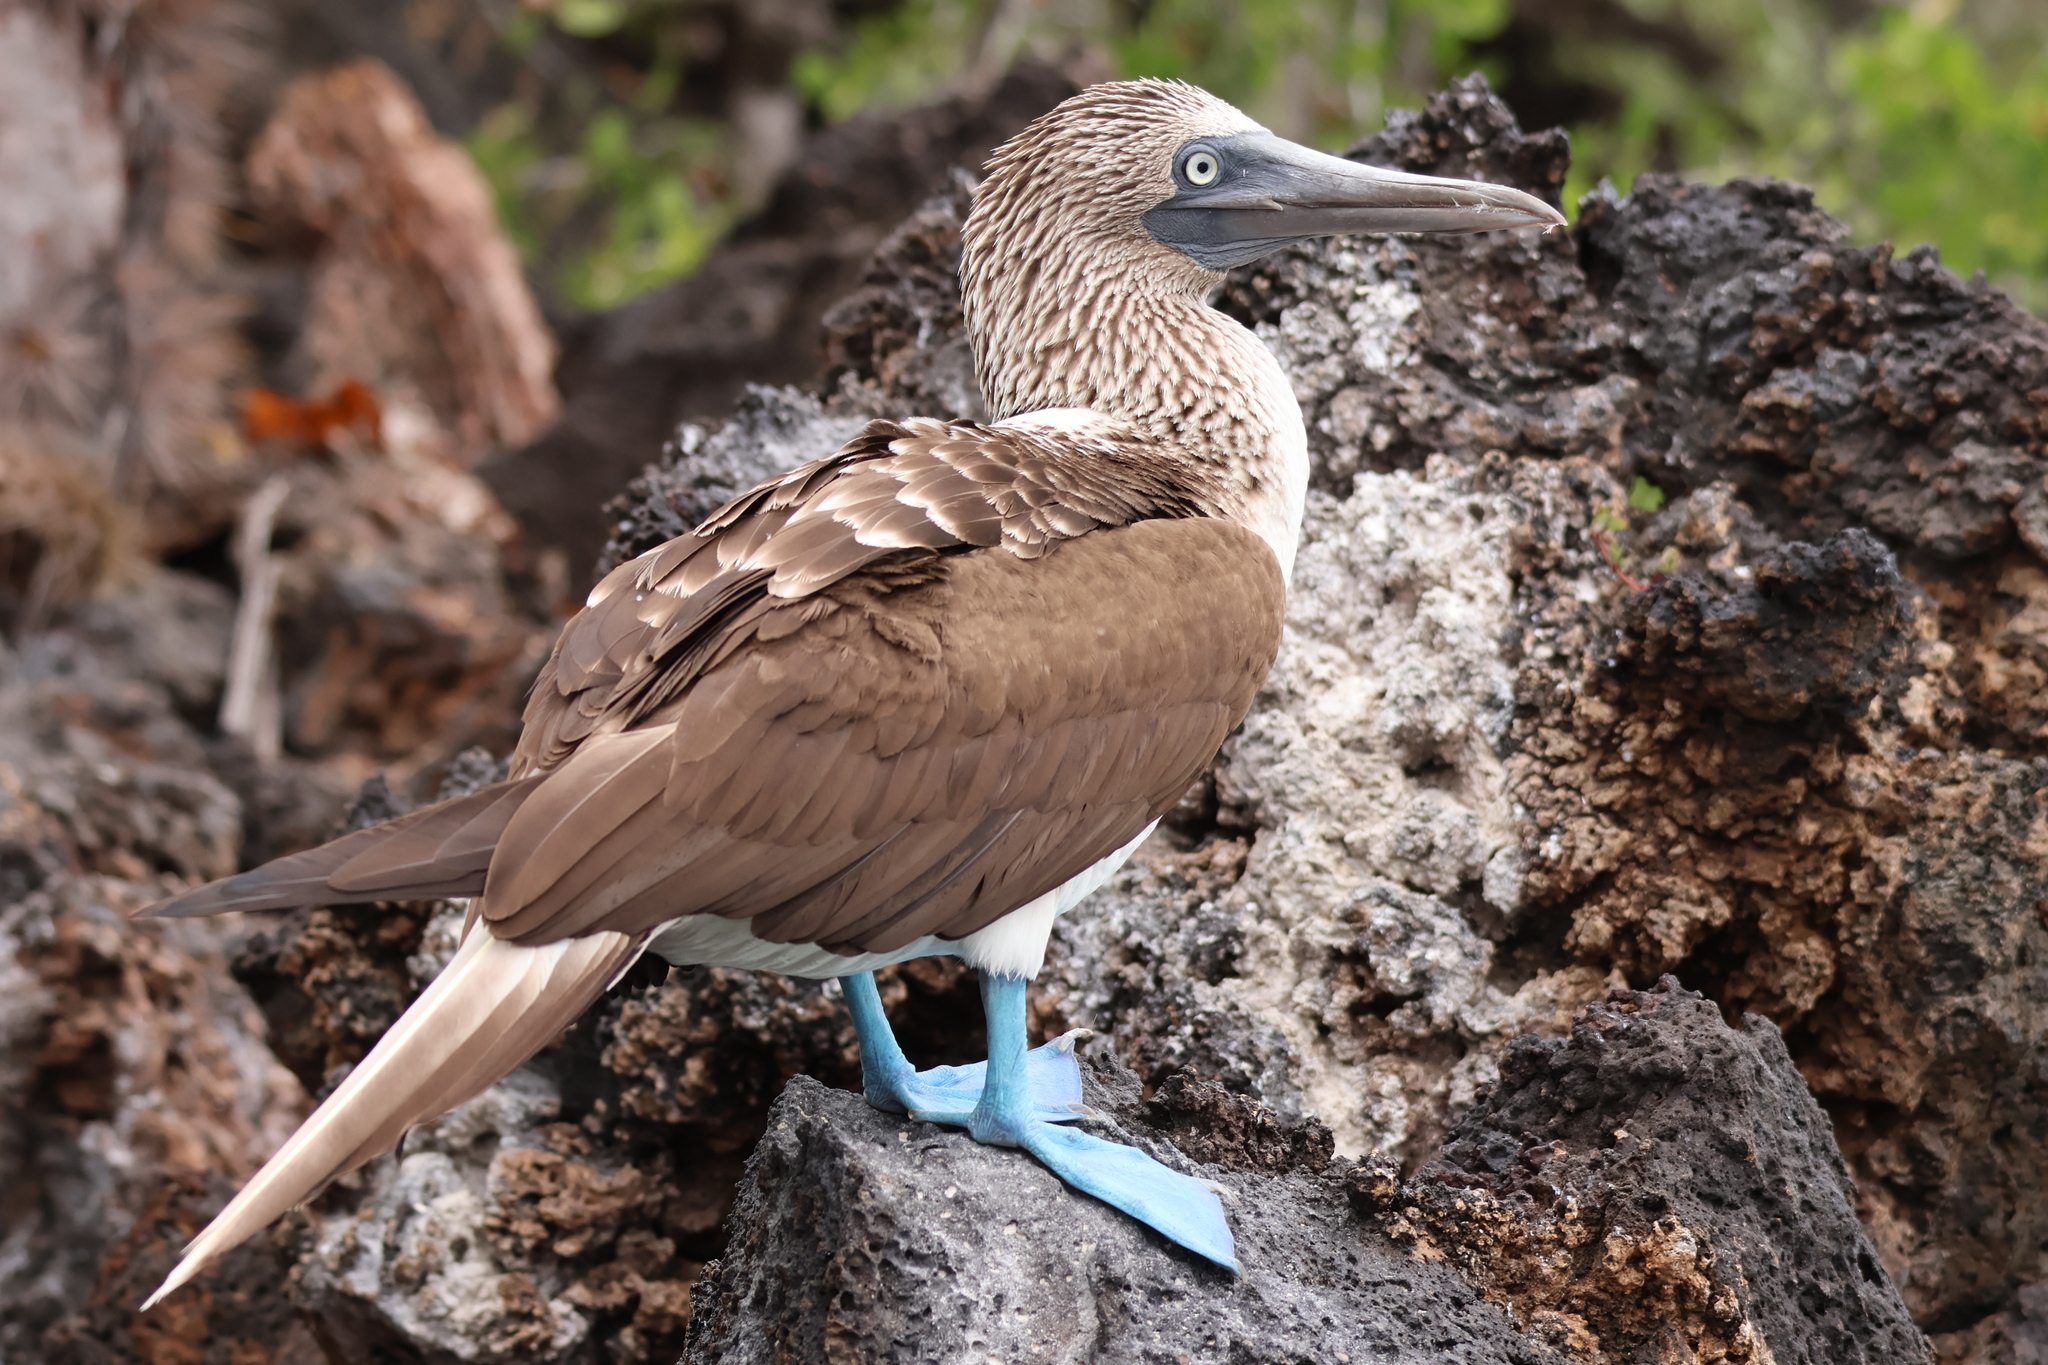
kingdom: Animalia
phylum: Chordata
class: Aves
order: Suliformes
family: Sulidae
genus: Sula
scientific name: Sula nebouxii
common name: Blue-footed booby
